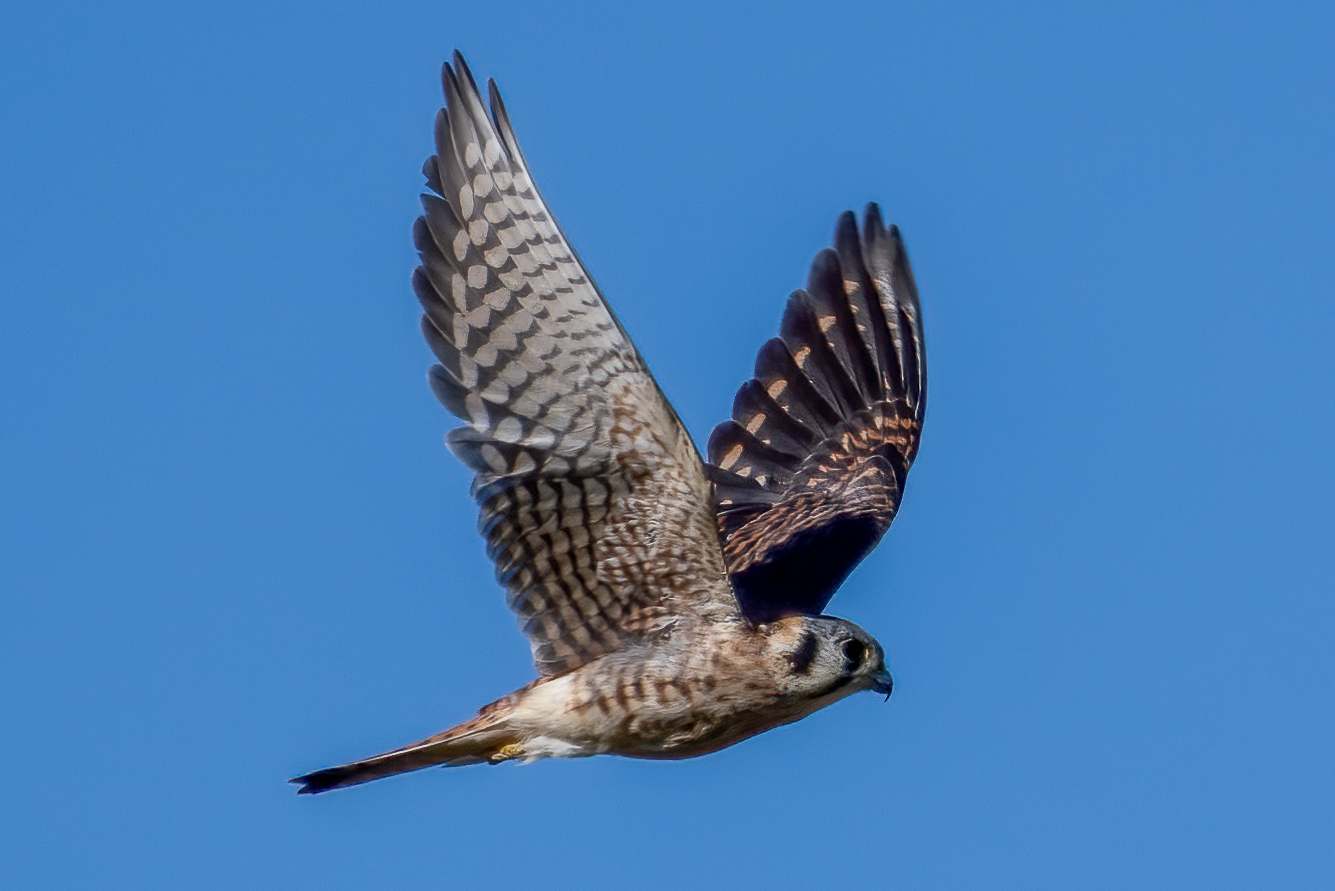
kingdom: Animalia
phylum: Chordata
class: Aves
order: Falconiformes
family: Falconidae
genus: Falco
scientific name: Falco sparverius
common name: American kestrel
